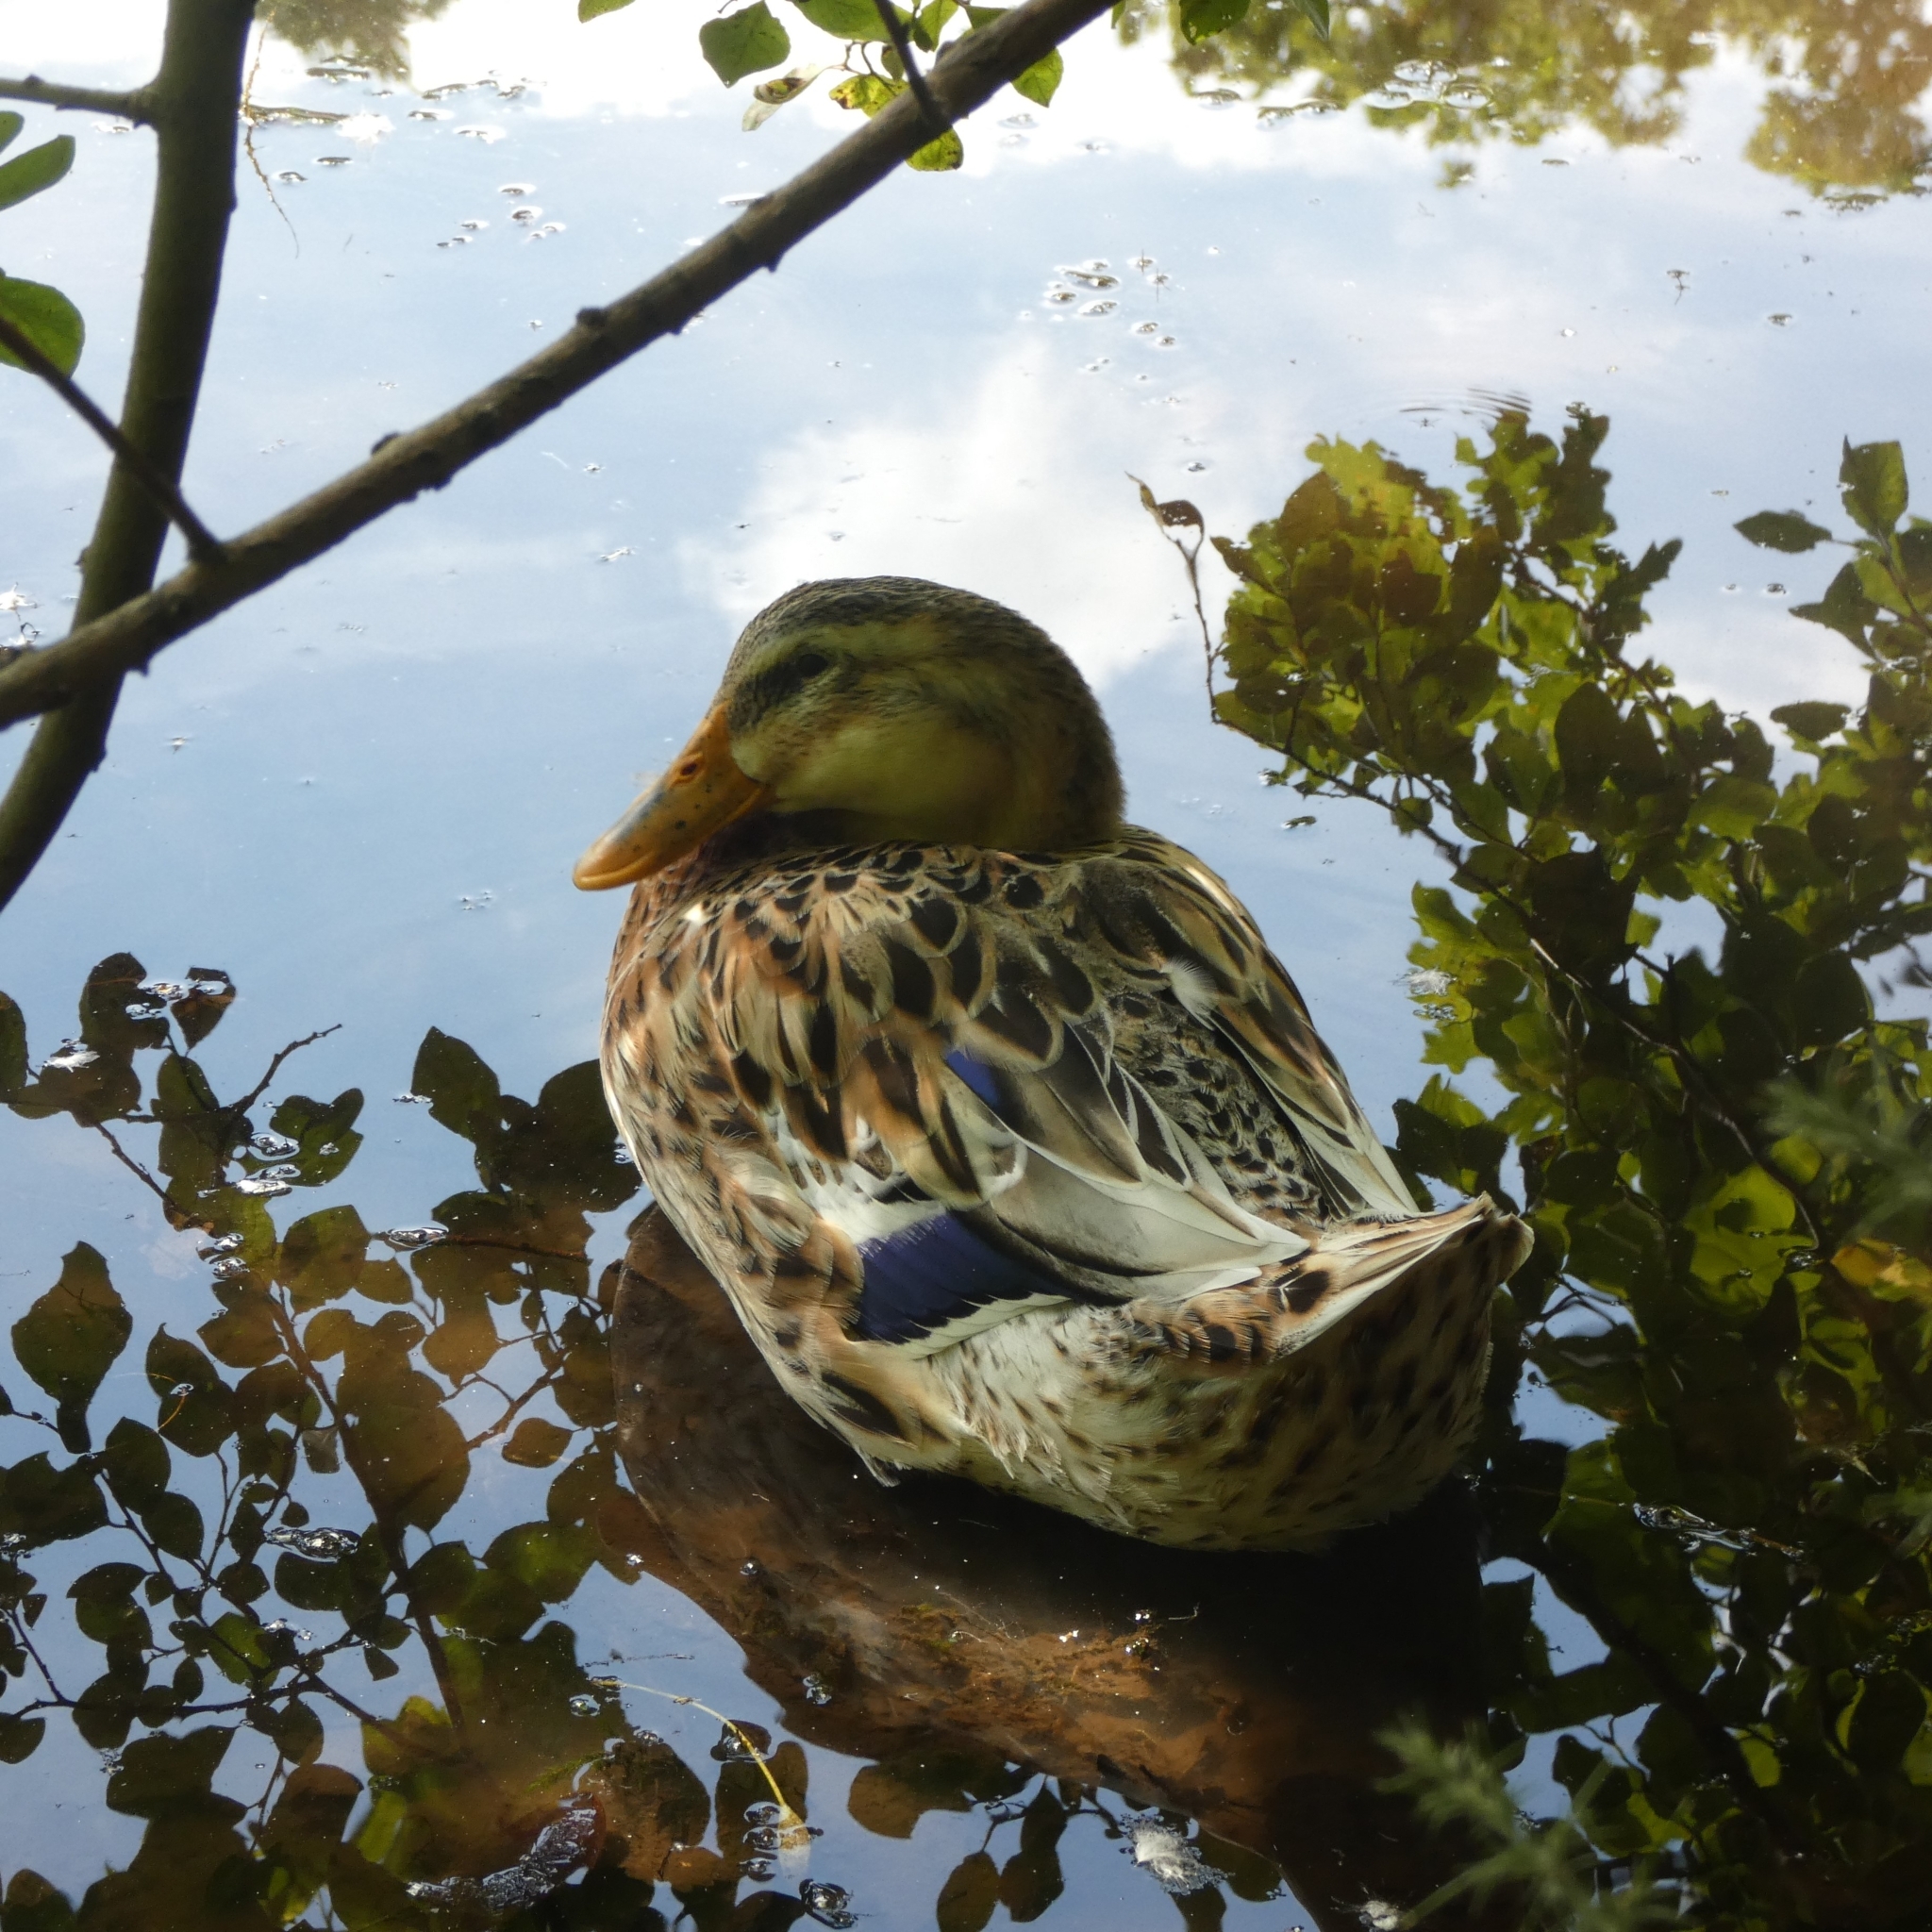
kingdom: Animalia
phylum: Chordata
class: Aves
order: Anseriformes
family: Anatidae
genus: Anas
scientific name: Anas platyrhynchos
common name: Mallard
